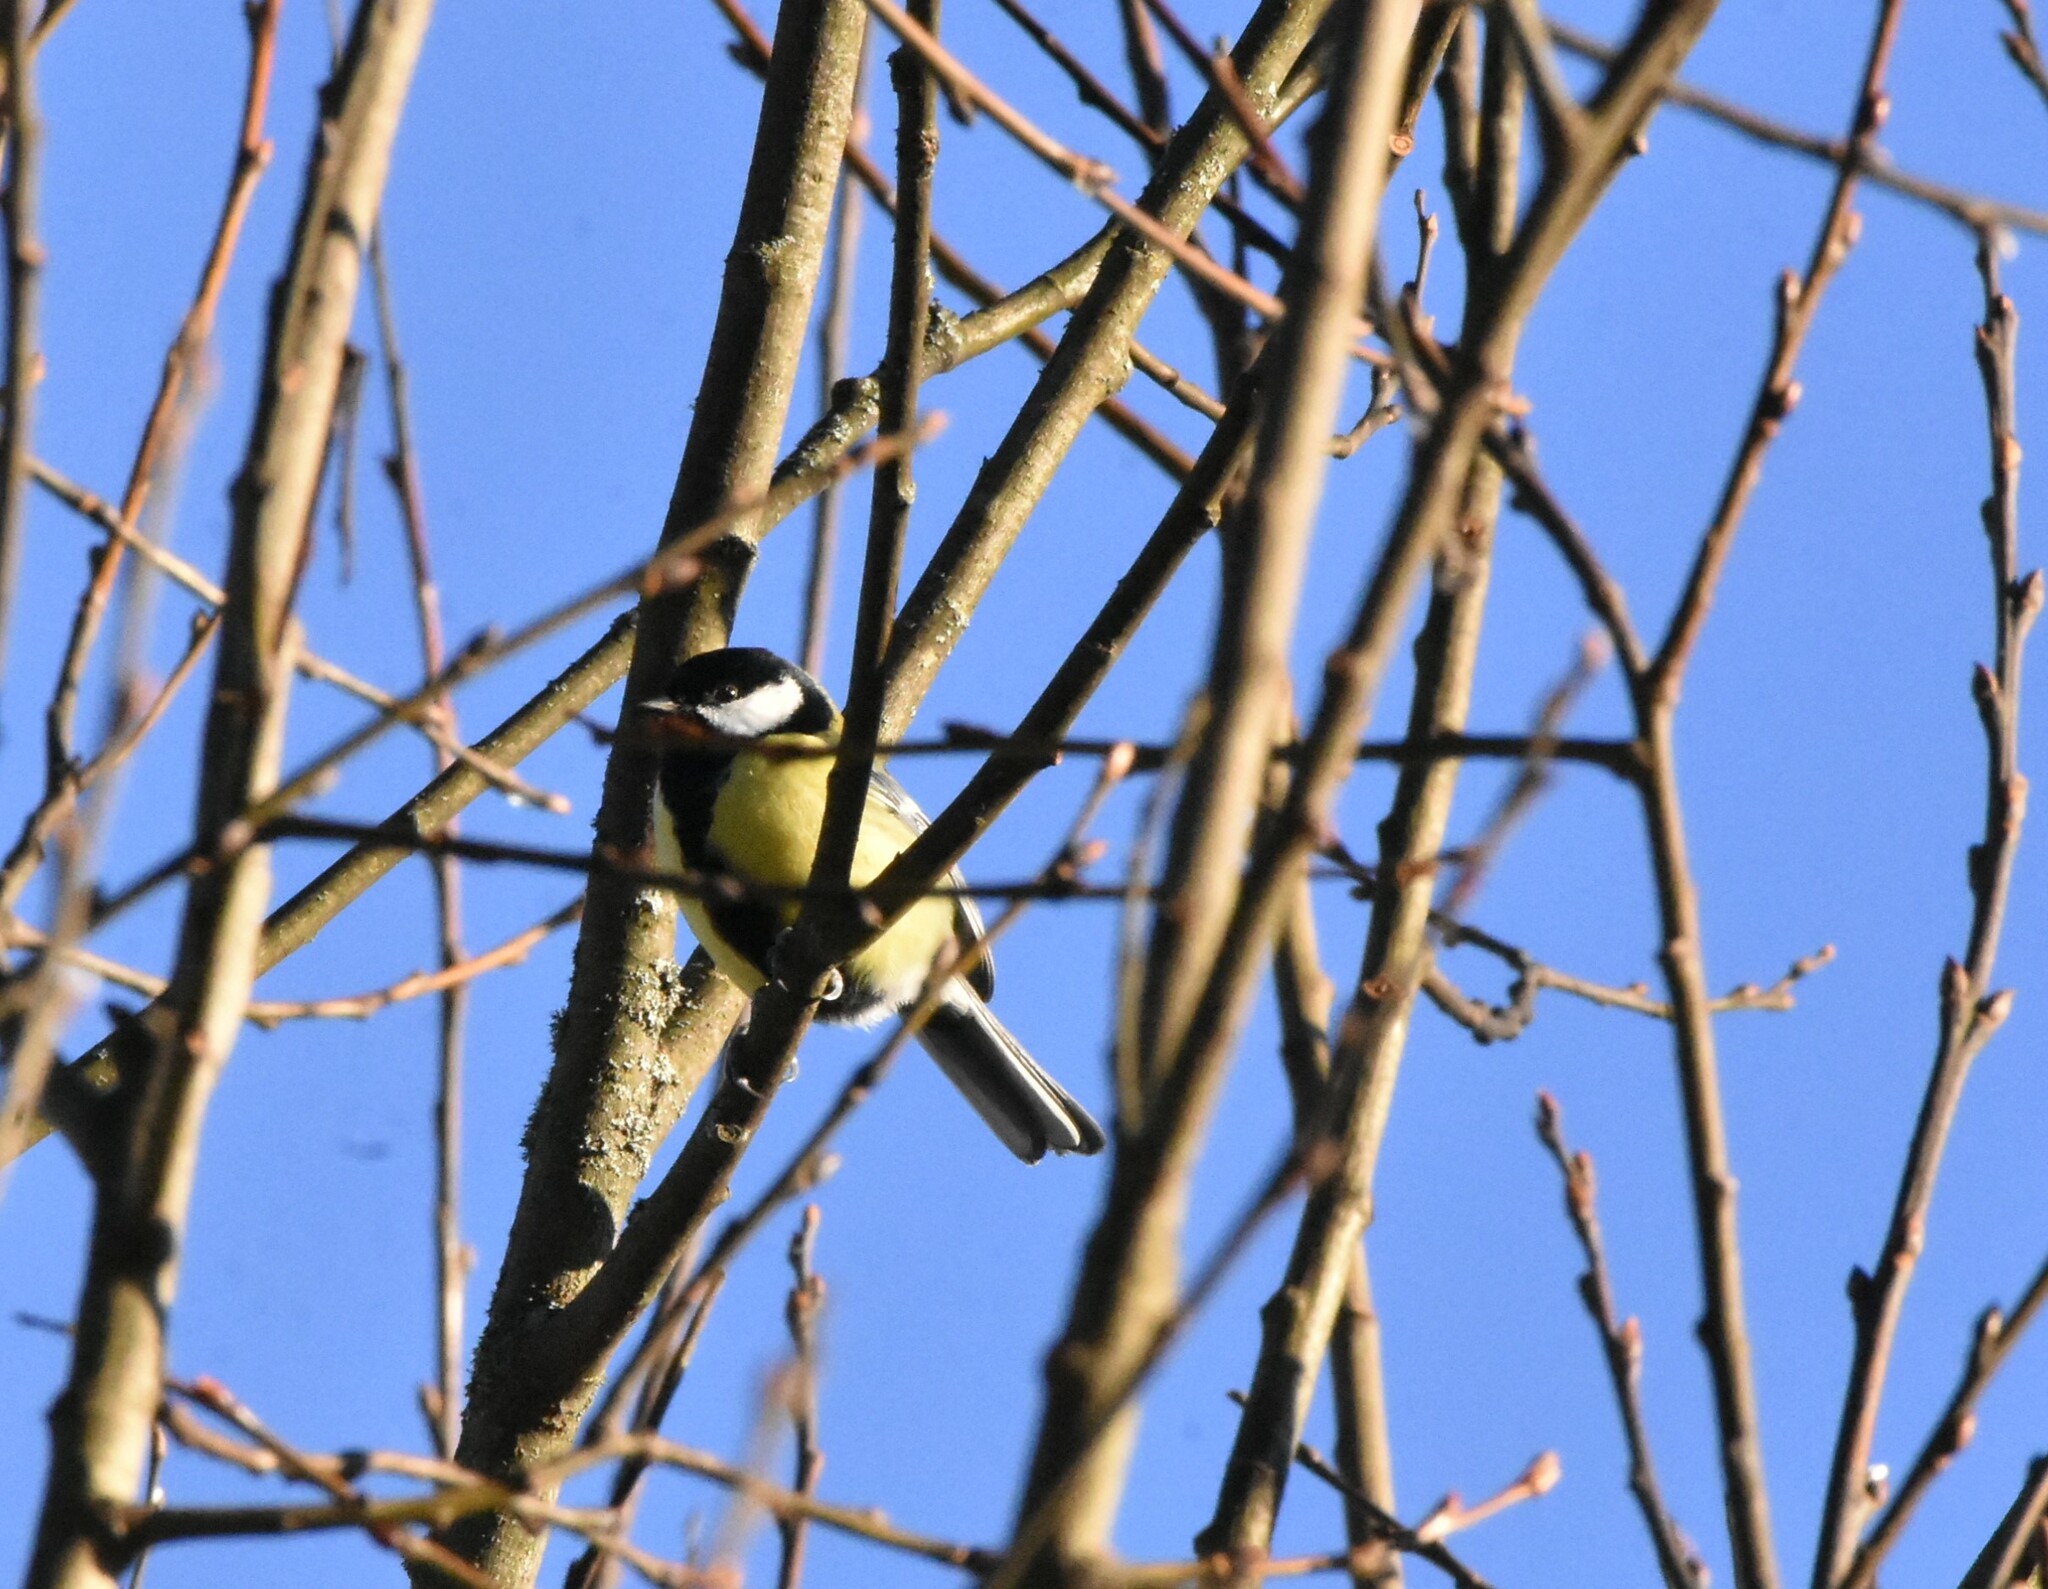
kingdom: Animalia
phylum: Chordata
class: Aves
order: Passeriformes
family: Paridae
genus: Parus
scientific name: Parus major
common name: Great tit
